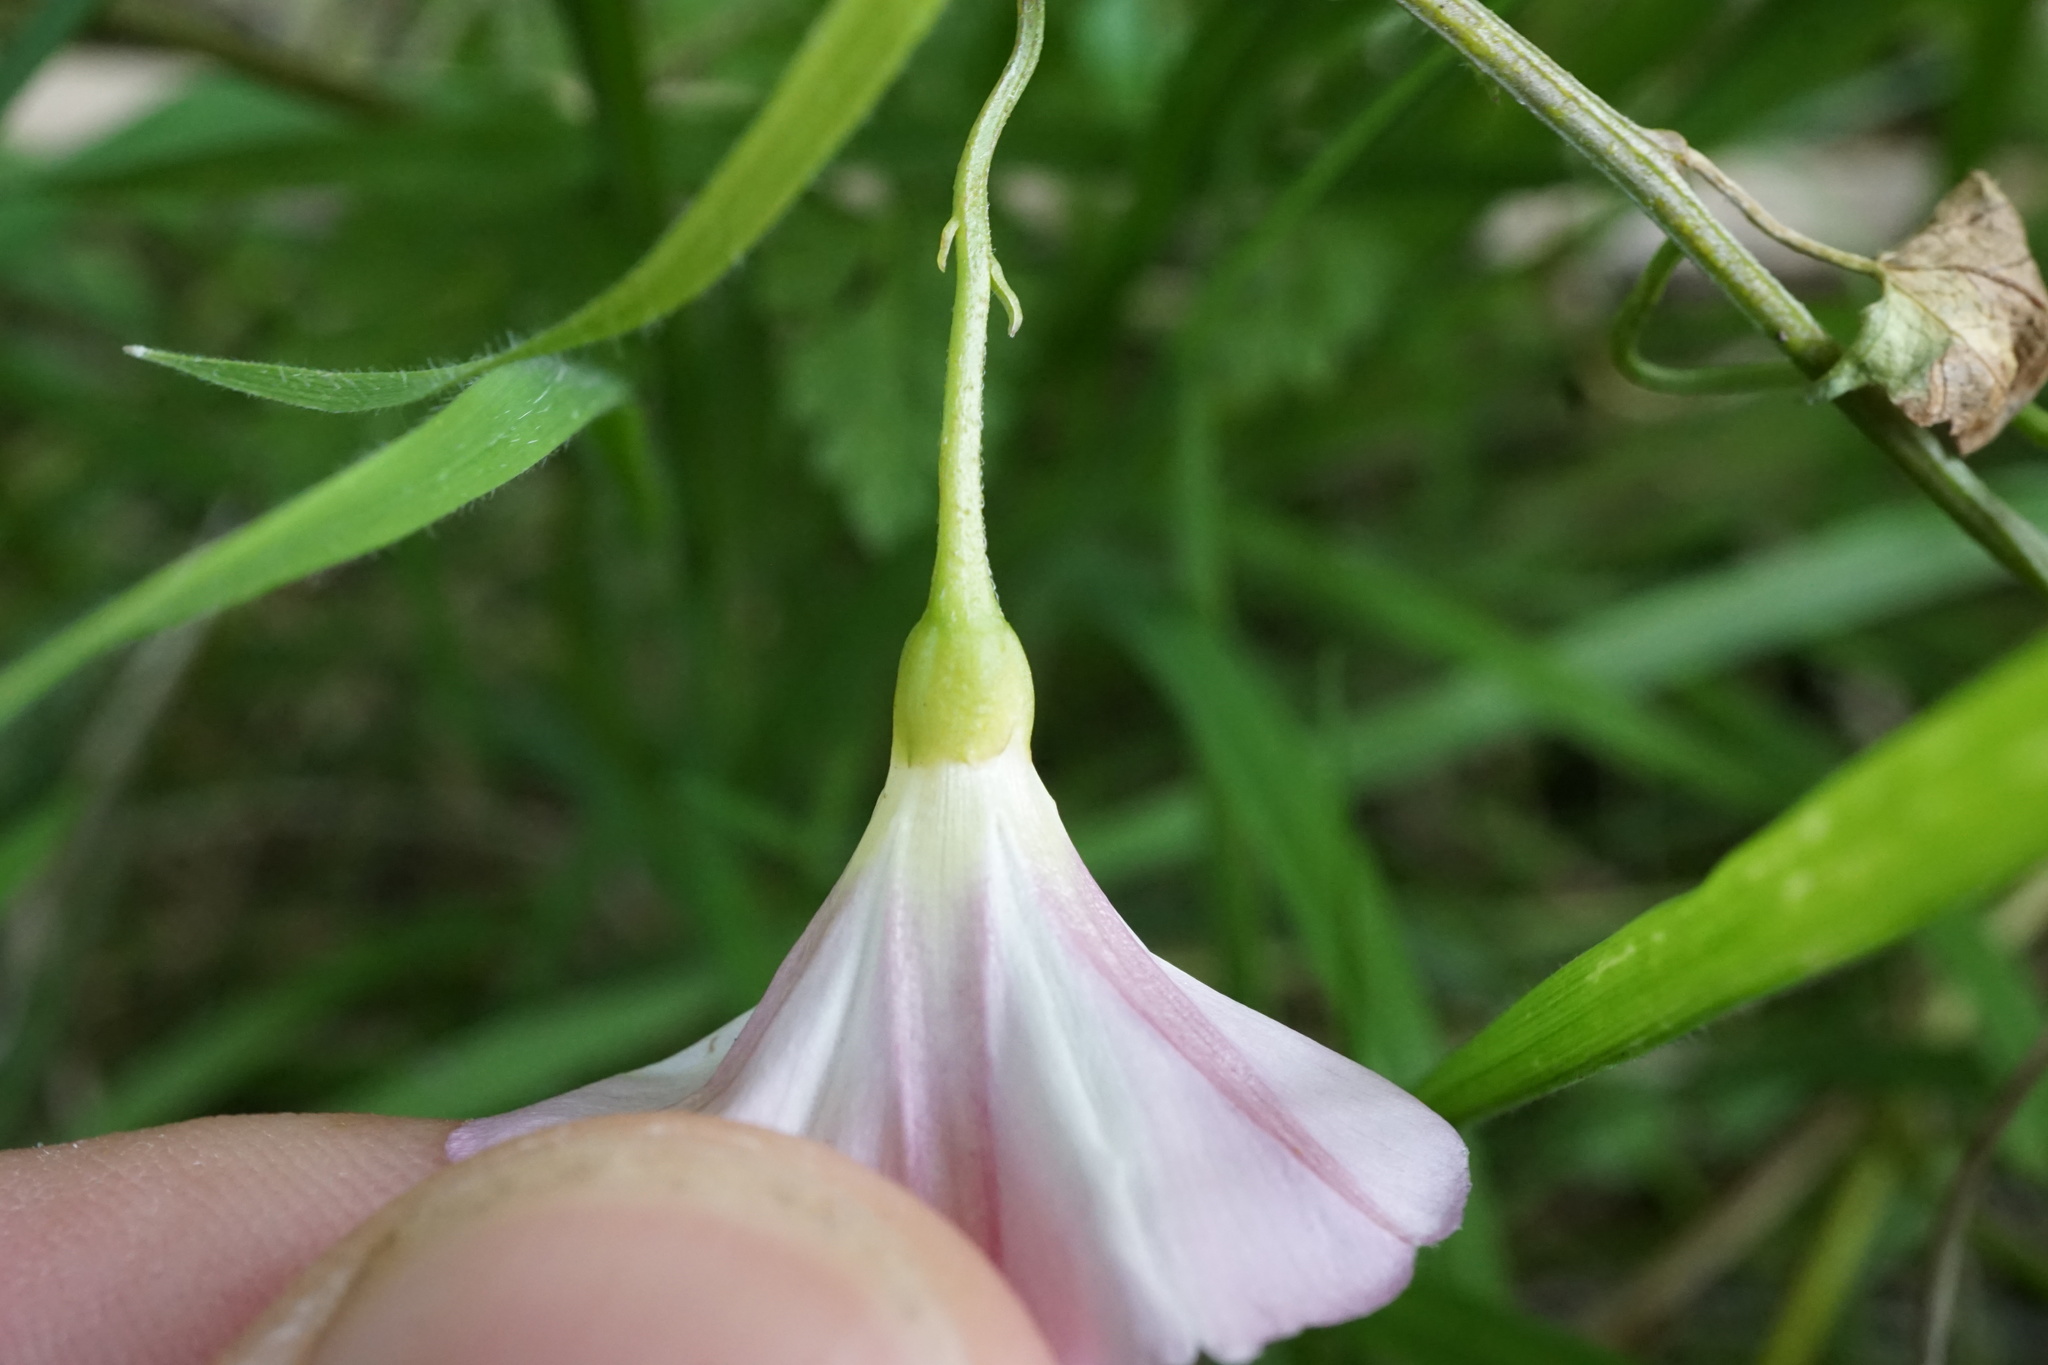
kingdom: Plantae
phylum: Tracheophyta
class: Magnoliopsida
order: Solanales
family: Convolvulaceae
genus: Convolvulus
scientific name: Convolvulus arvensis
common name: Field bindweed
